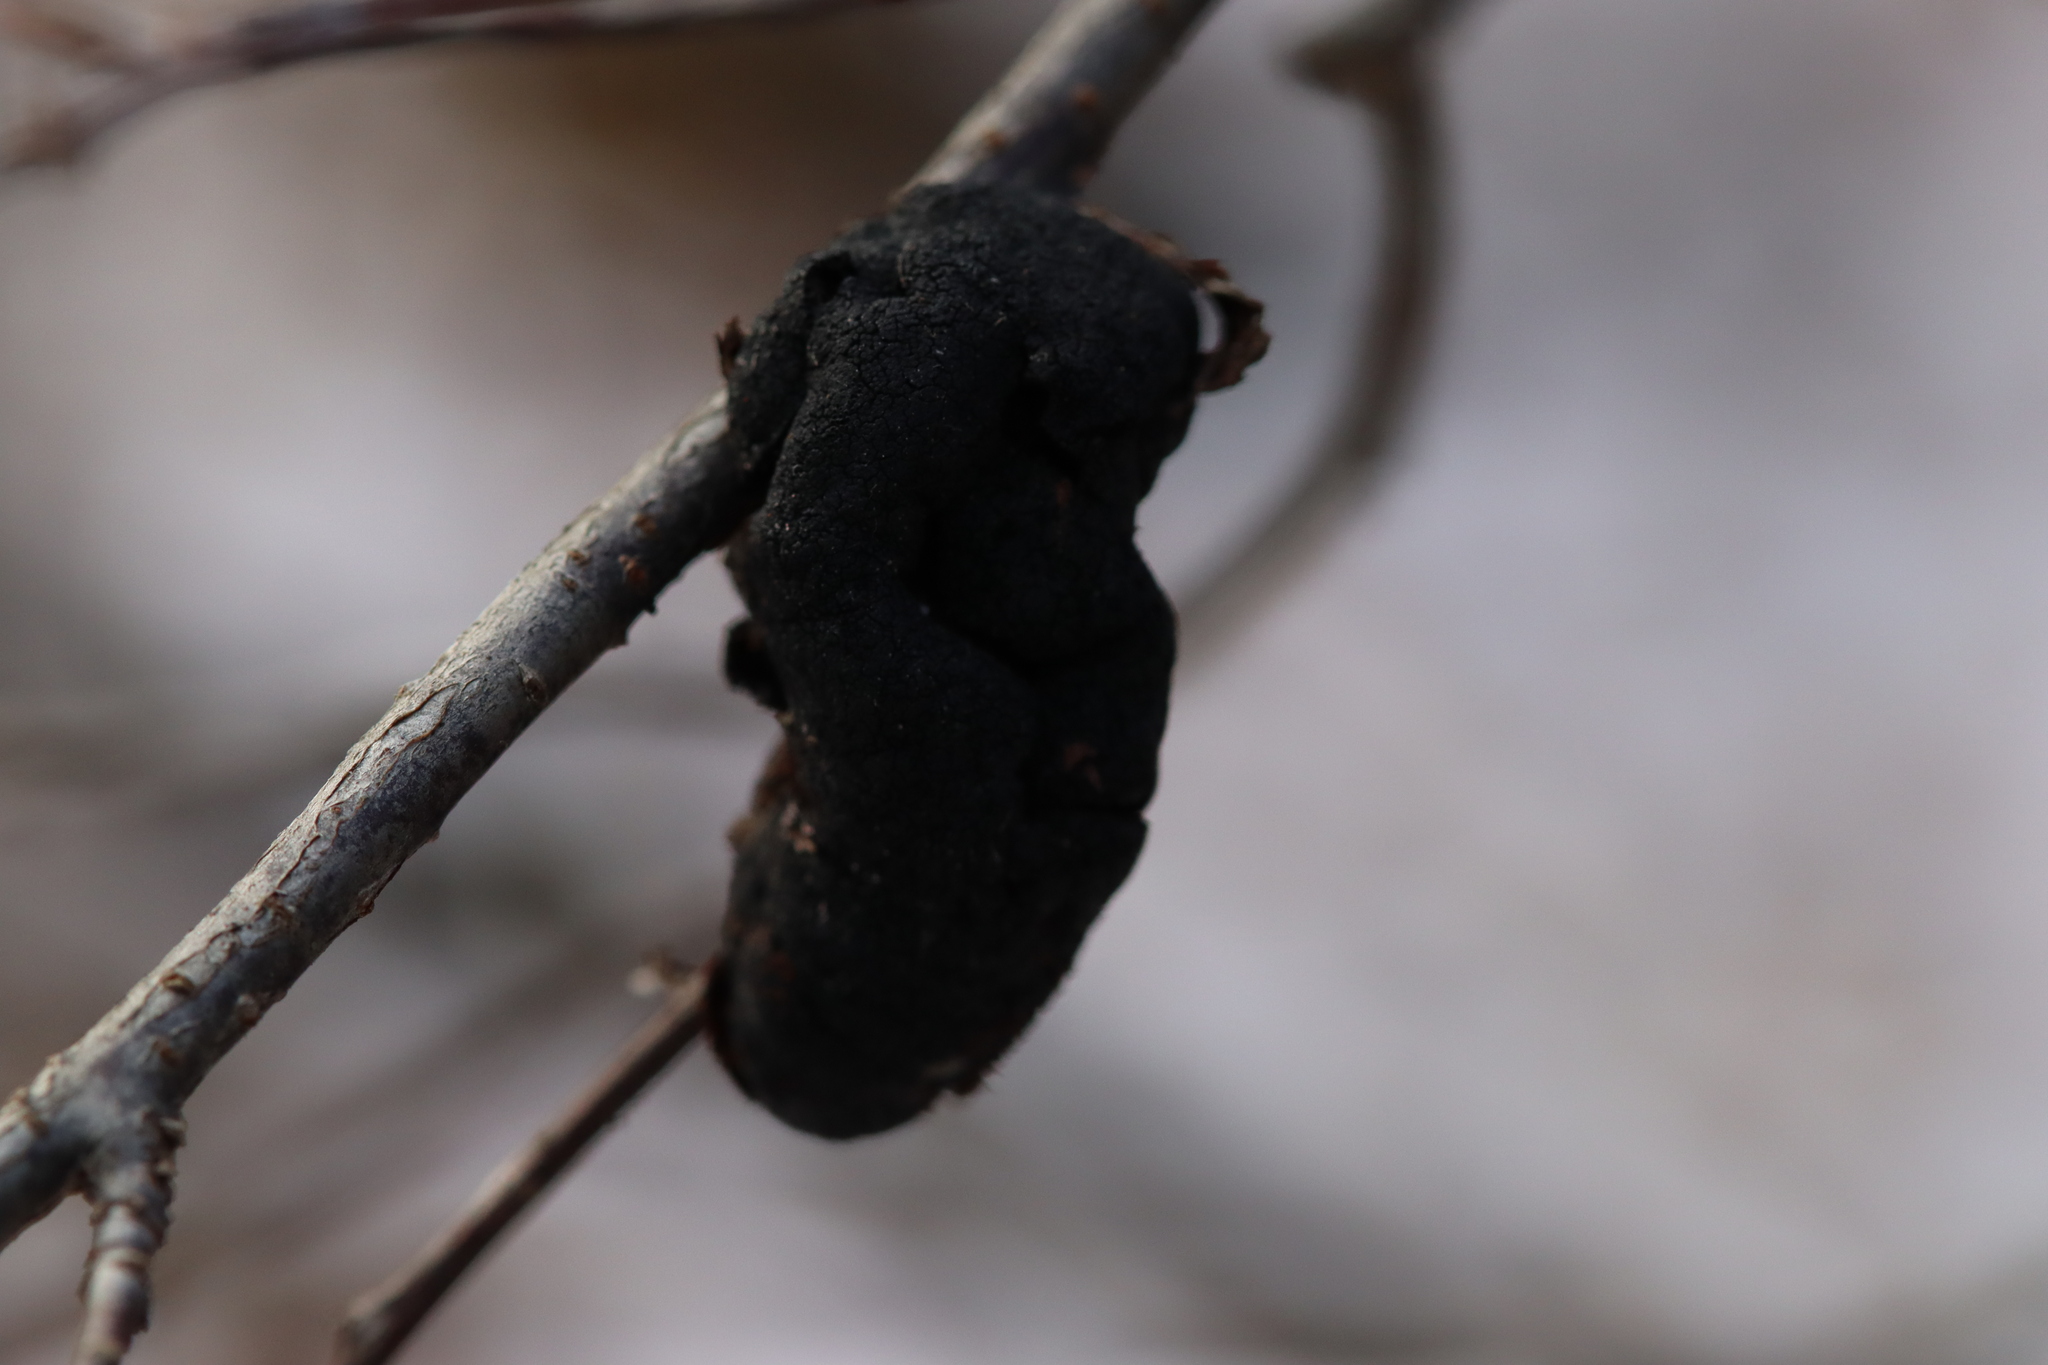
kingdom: Fungi
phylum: Ascomycota
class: Dothideomycetes
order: Venturiales
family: Venturiaceae
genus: Apiosporina
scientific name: Apiosporina morbosa
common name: Black knot
